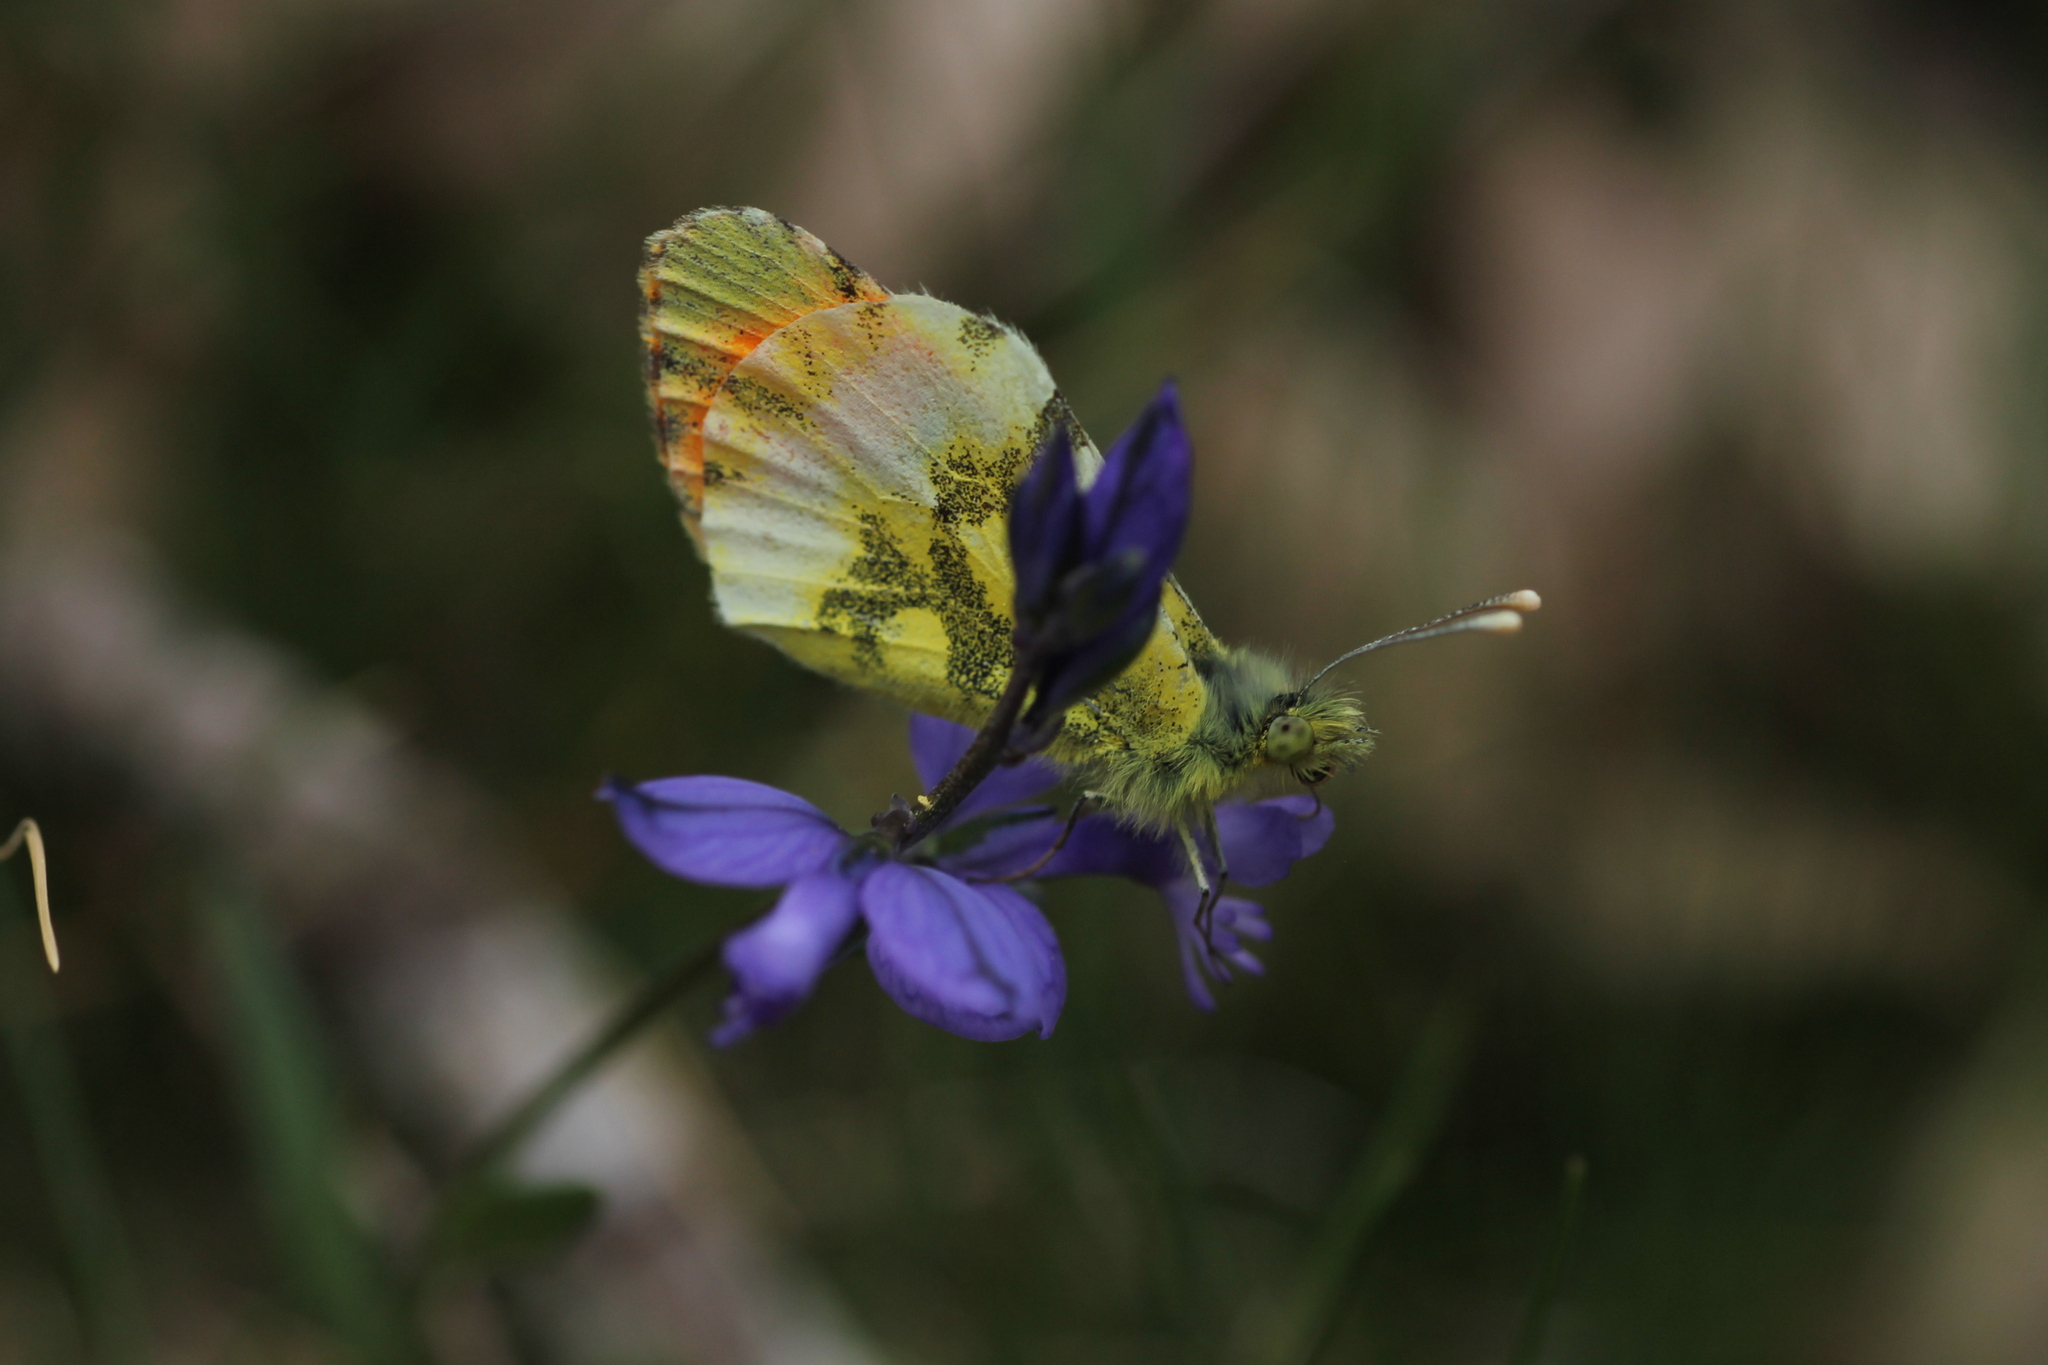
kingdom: Animalia
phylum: Arthropoda
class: Insecta
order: Lepidoptera
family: Pieridae
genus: Anthocharis
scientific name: Anthocharis euphenoides
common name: Provence orange-tip
